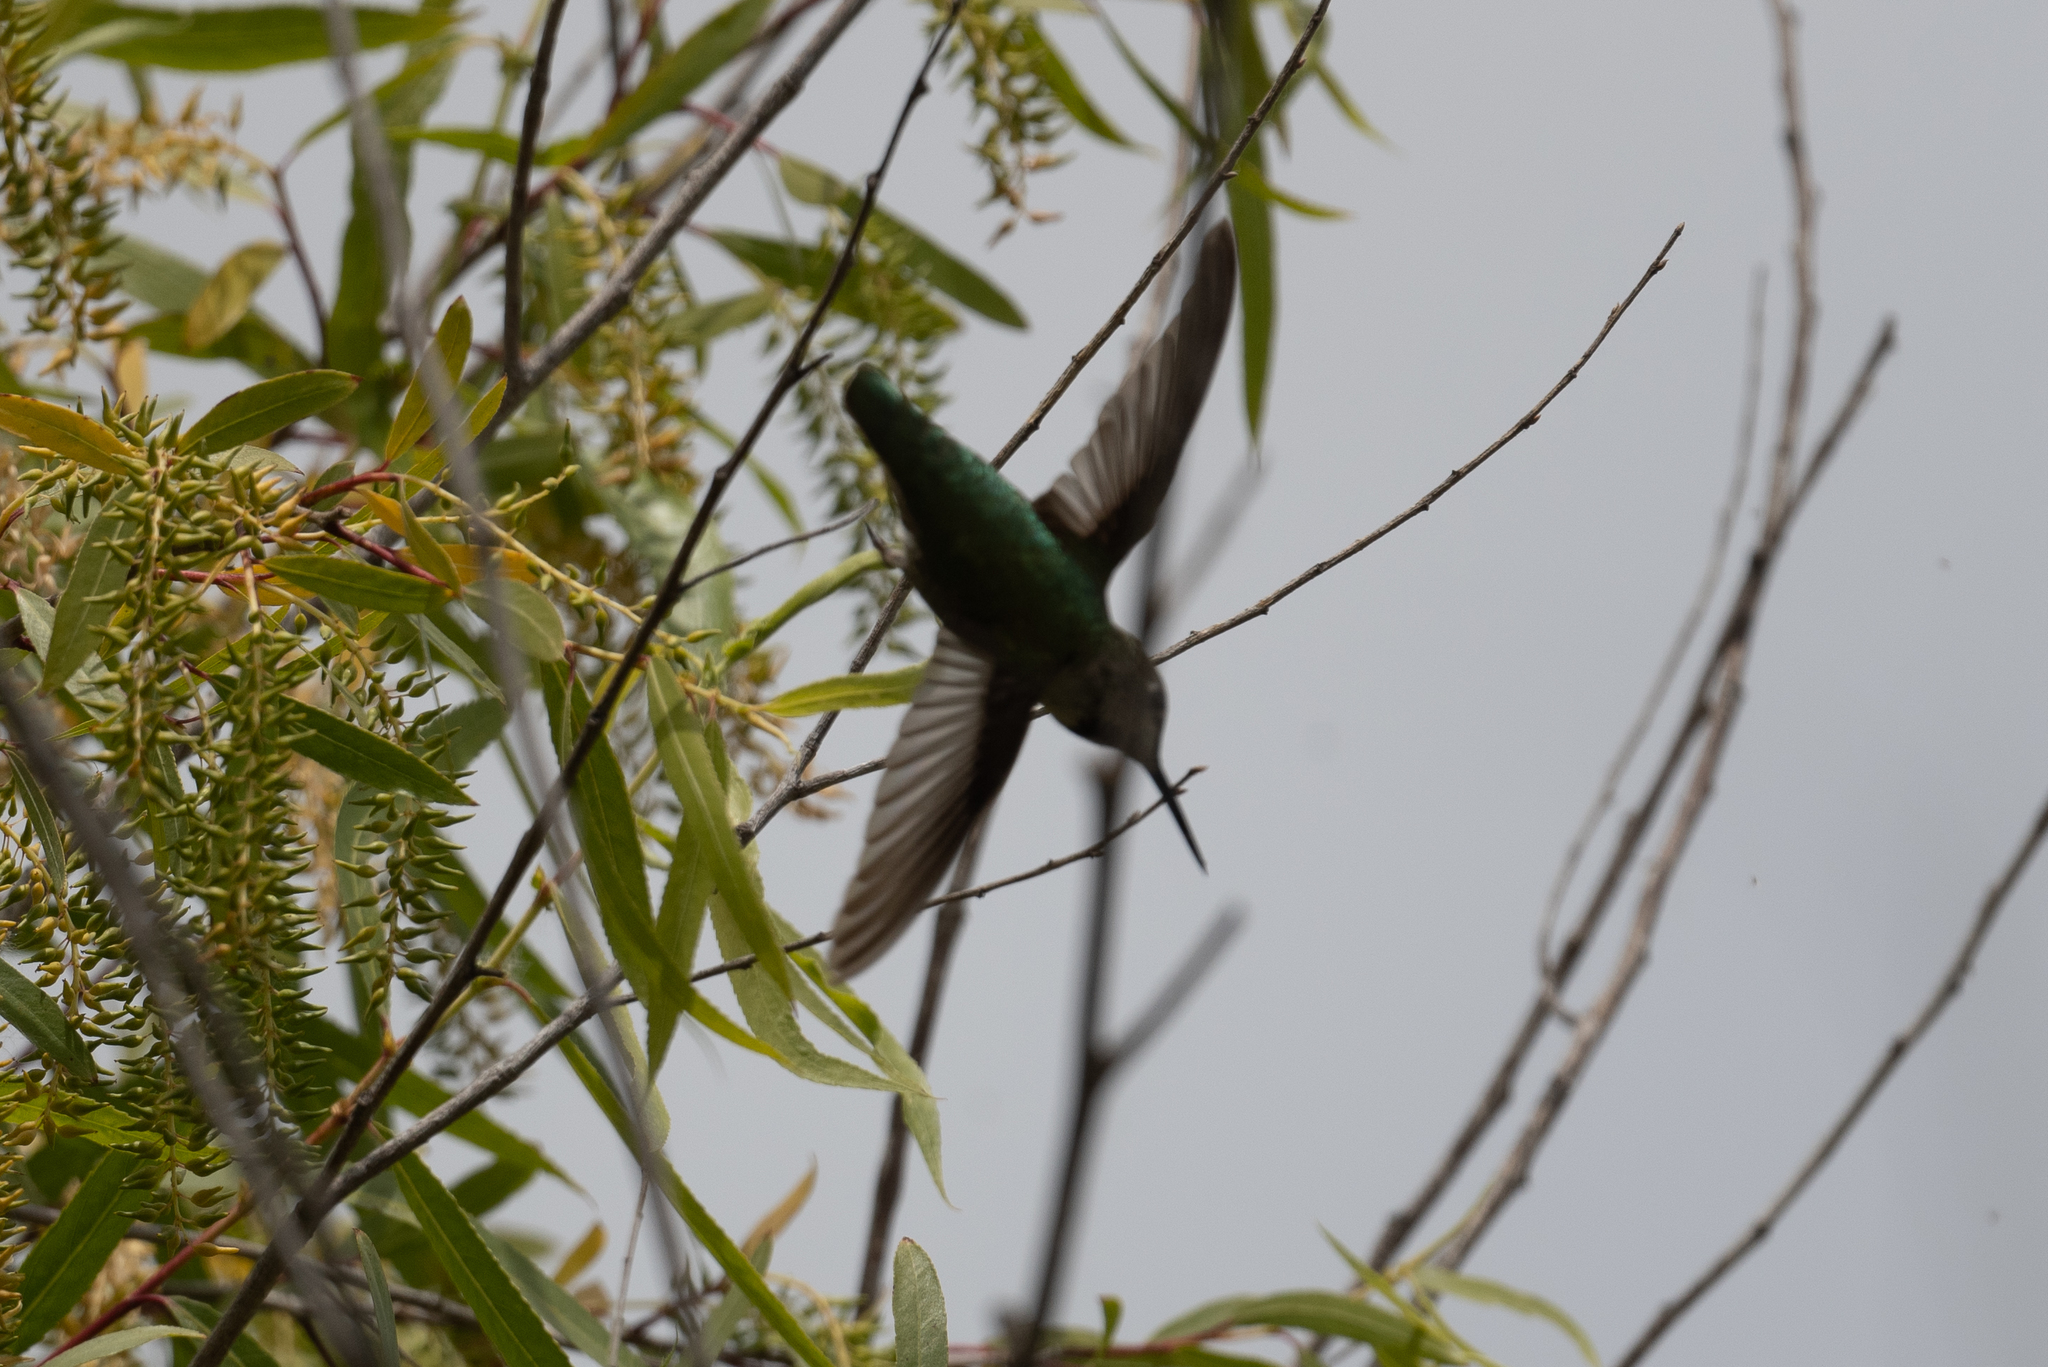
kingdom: Animalia
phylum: Chordata
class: Aves
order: Apodiformes
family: Trochilidae
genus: Calypte
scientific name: Calypte anna
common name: Anna's hummingbird
